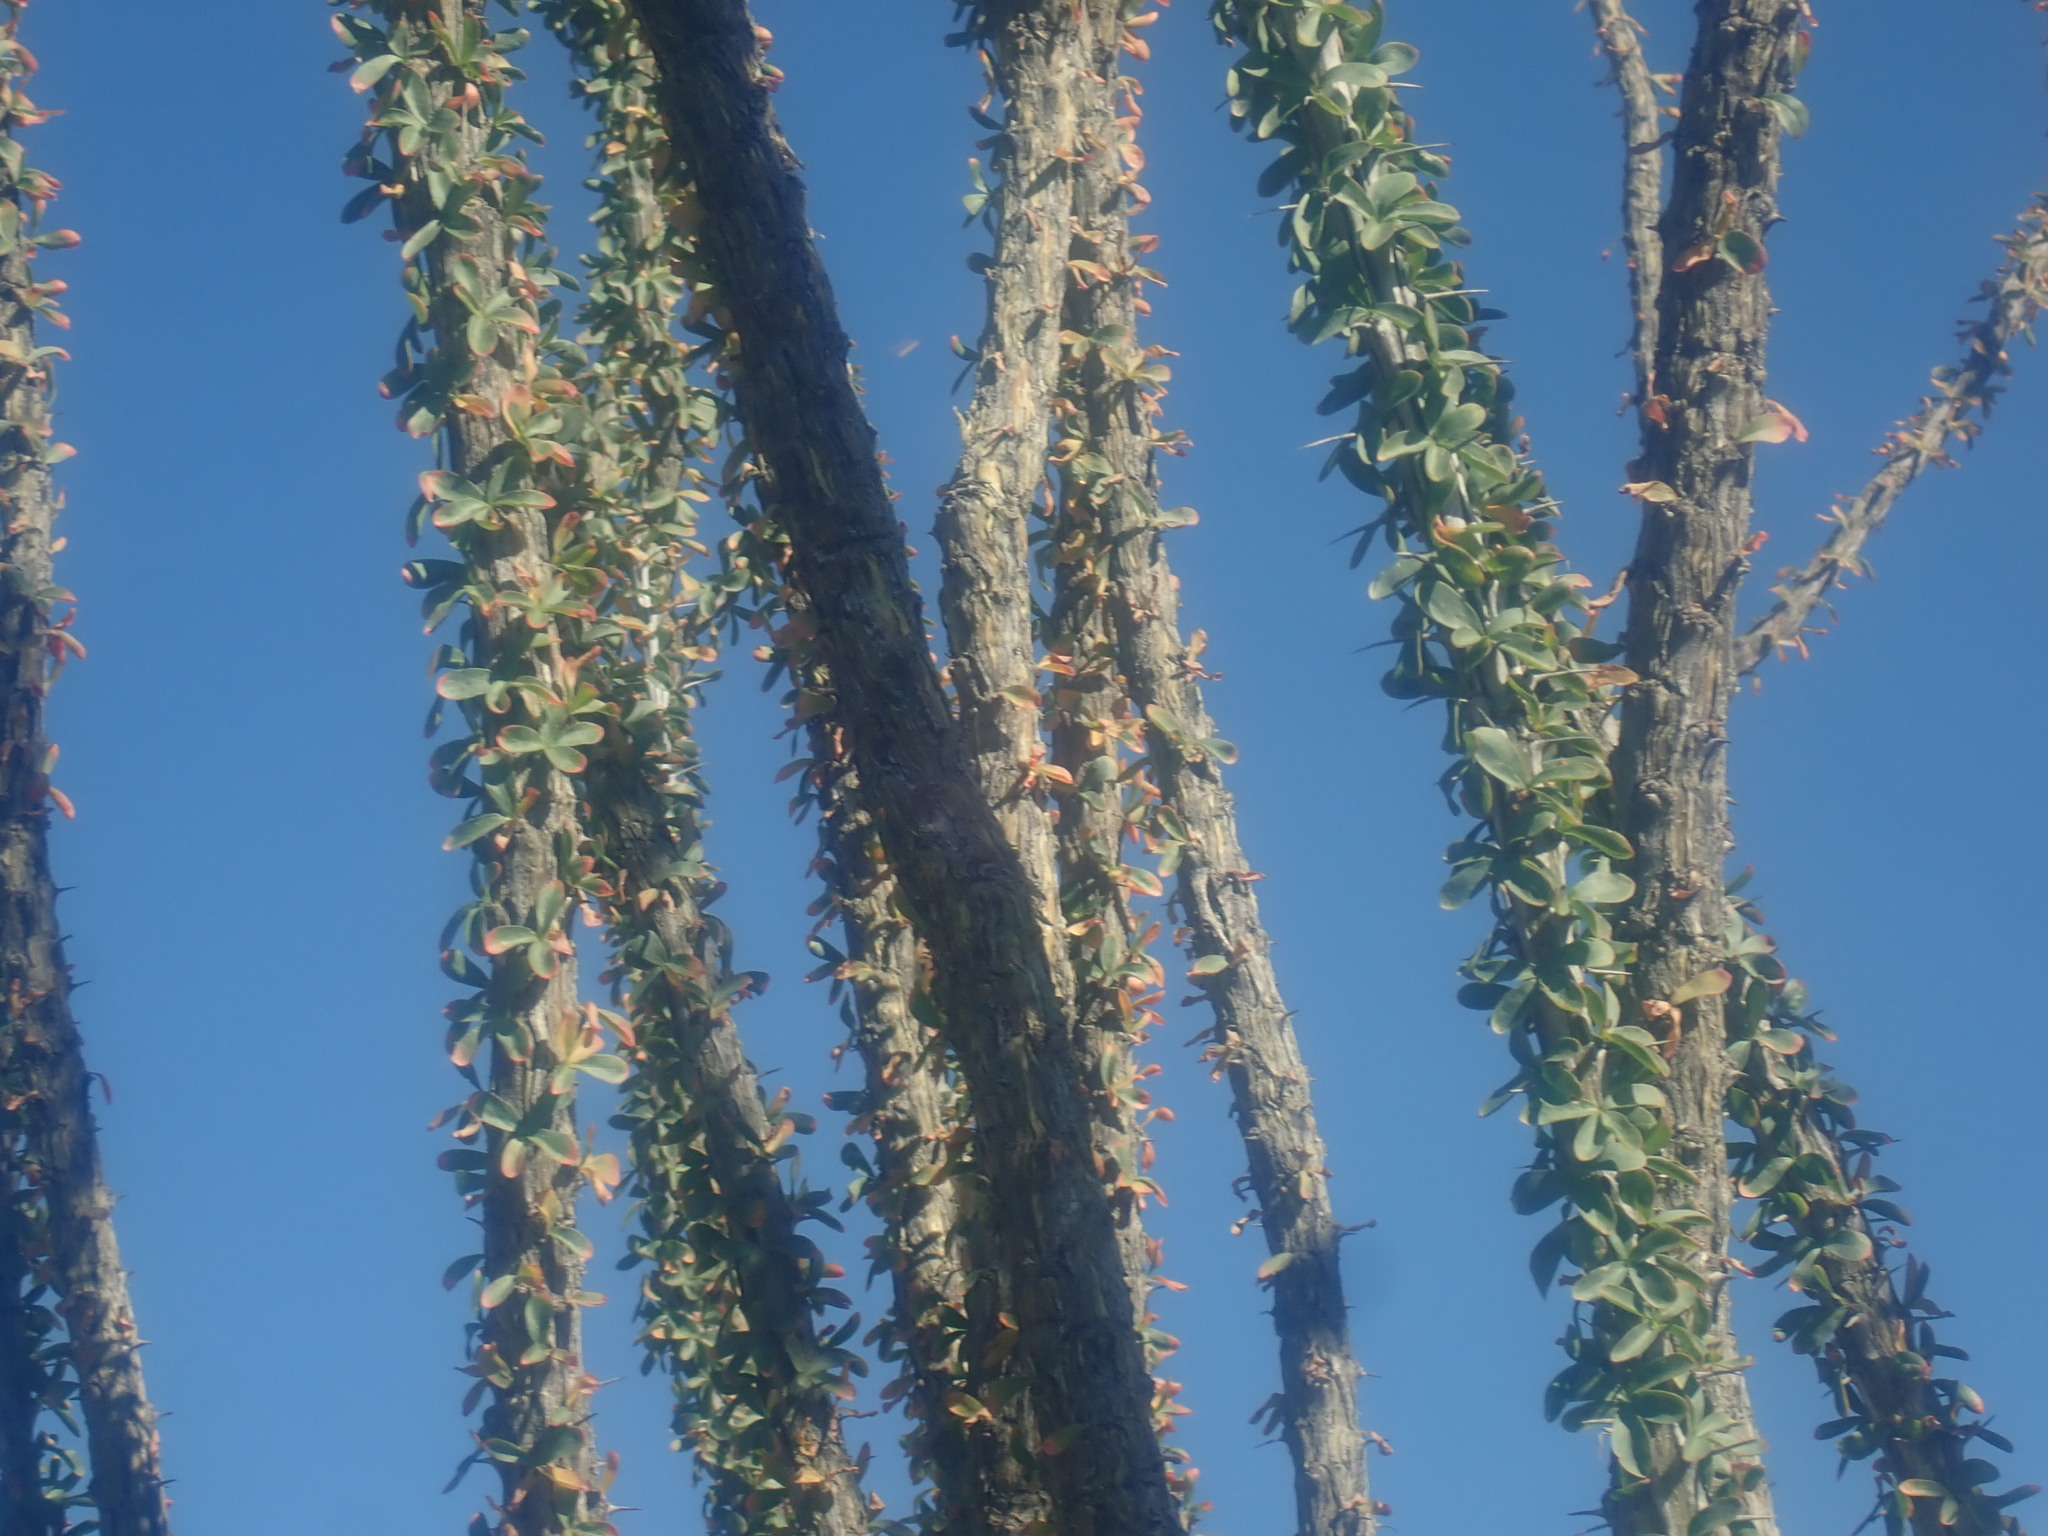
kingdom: Plantae
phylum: Tracheophyta
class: Magnoliopsida
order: Ericales
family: Fouquieriaceae
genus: Fouquieria
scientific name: Fouquieria splendens
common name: Vine-cactus
